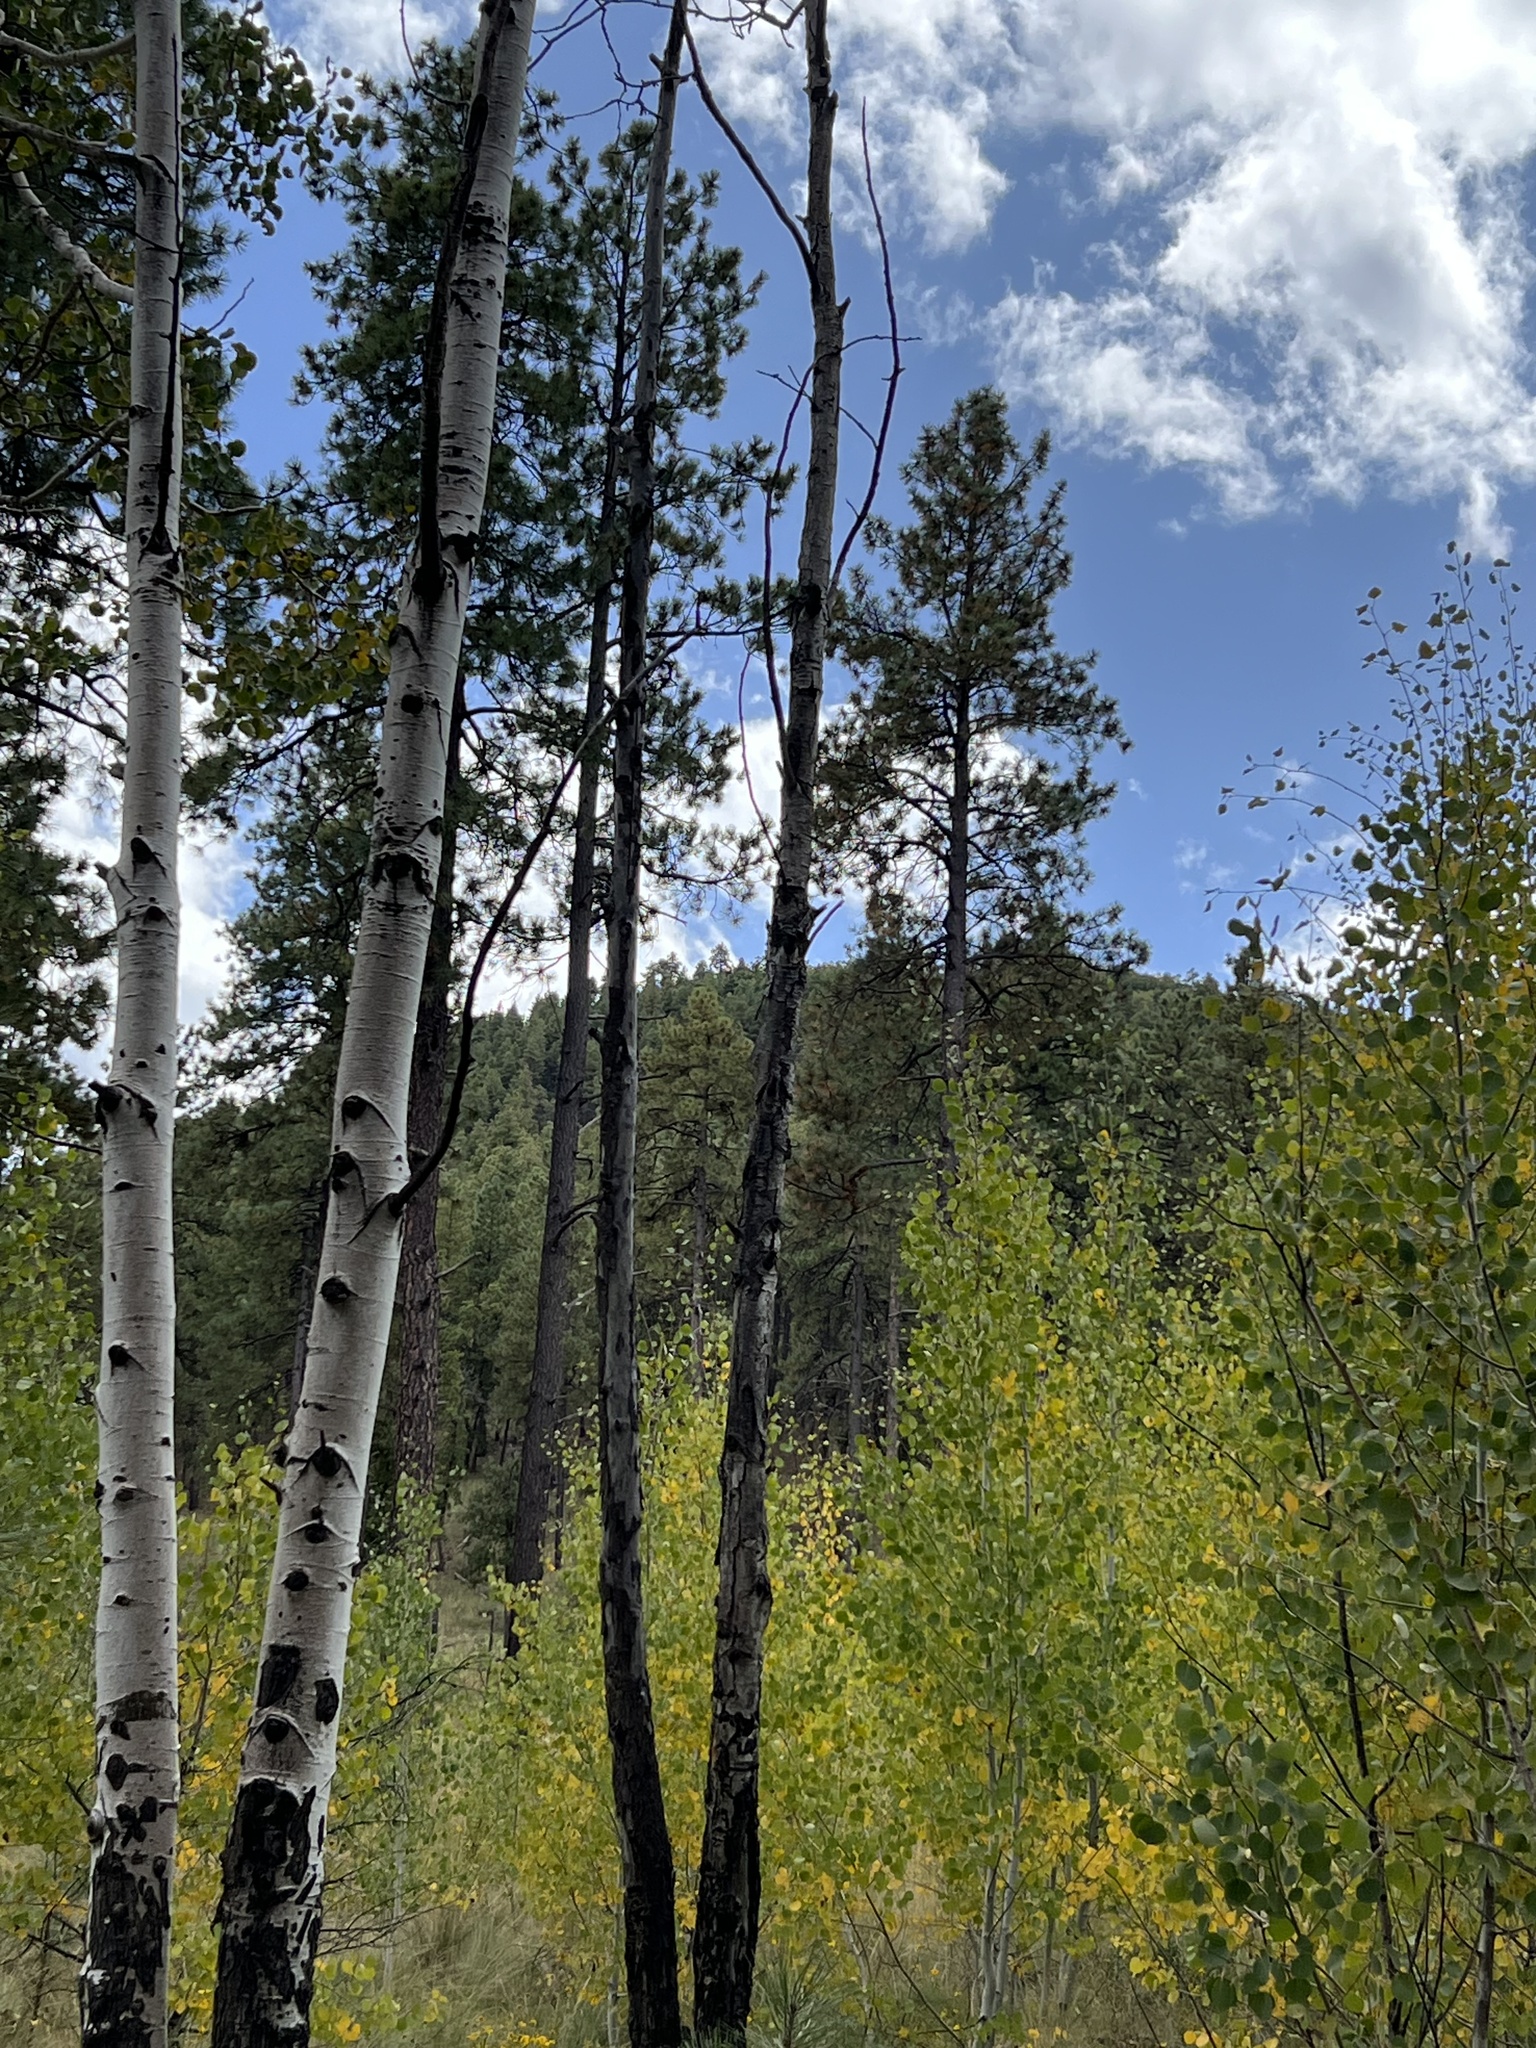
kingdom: Plantae
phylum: Tracheophyta
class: Magnoliopsida
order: Malpighiales
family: Salicaceae
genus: Populus
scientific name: Populus tremuloides
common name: Quaking aspen
